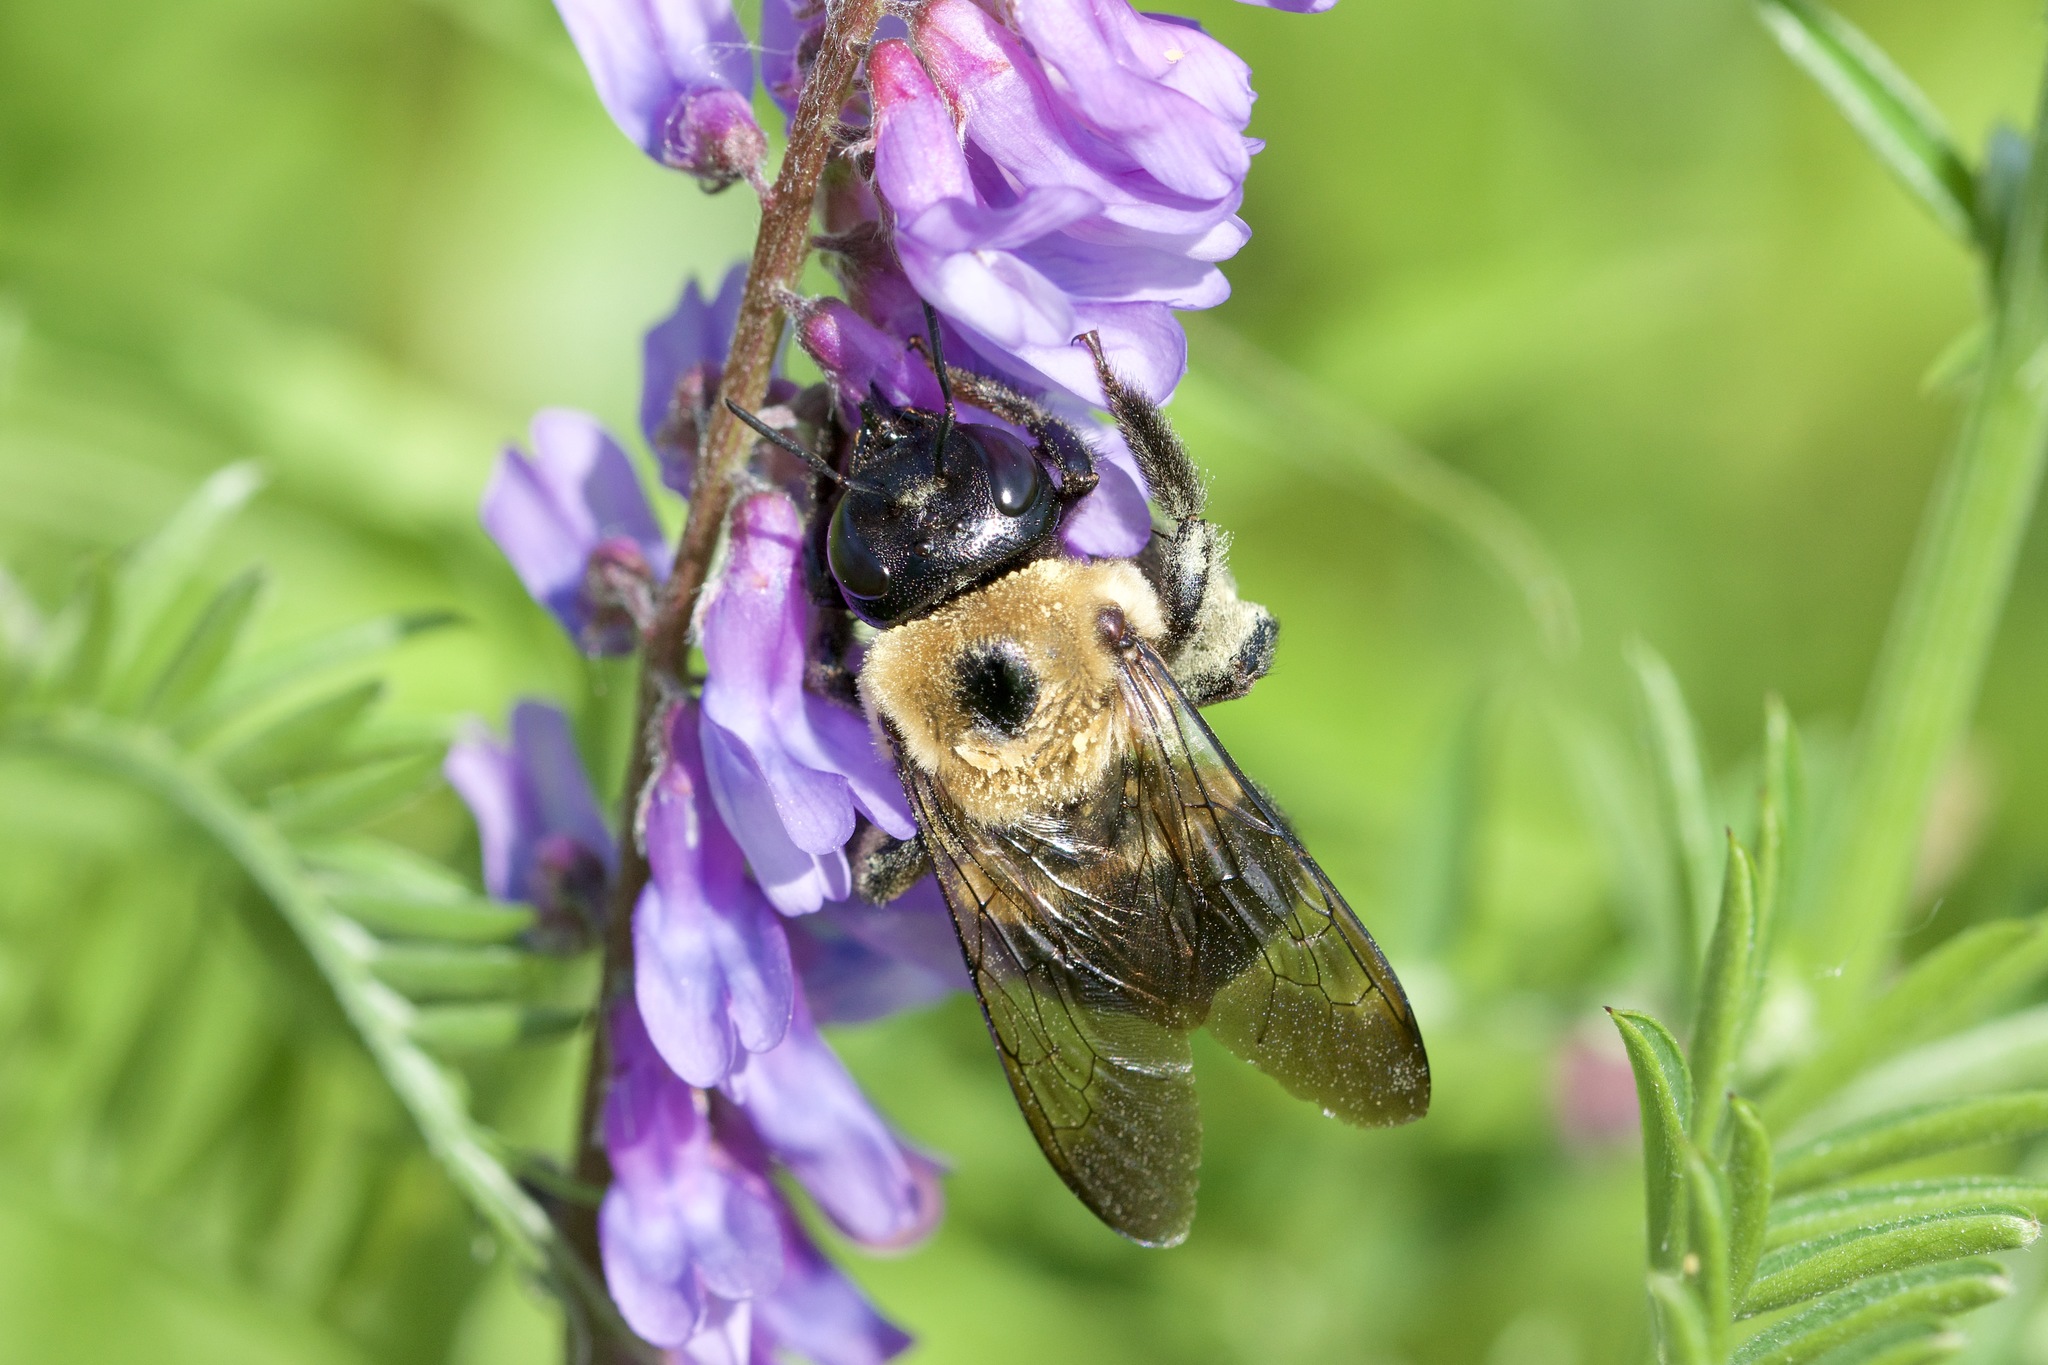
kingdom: Animalia
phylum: Arthropoda
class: Insecta
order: Hymenoptera
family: Apidae
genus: Xylocopa
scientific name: Xylocopa virginica
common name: Carpenter bee
